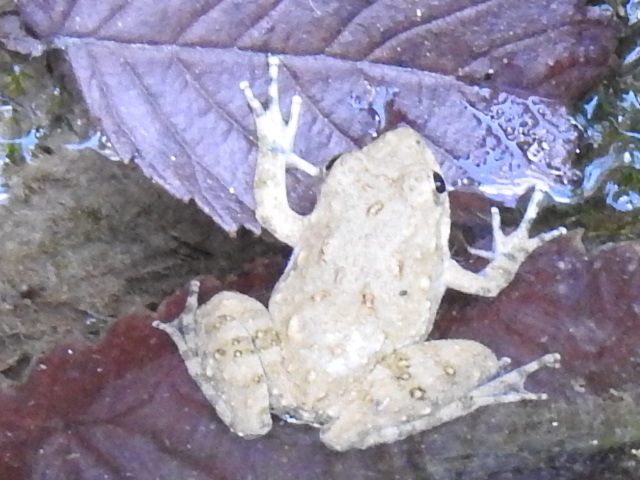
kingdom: Animalia
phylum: Chordata
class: Amphibia
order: Anura
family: Hylidae
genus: Acris
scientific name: Acris blanchardi
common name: Blanchard's cricket frog
